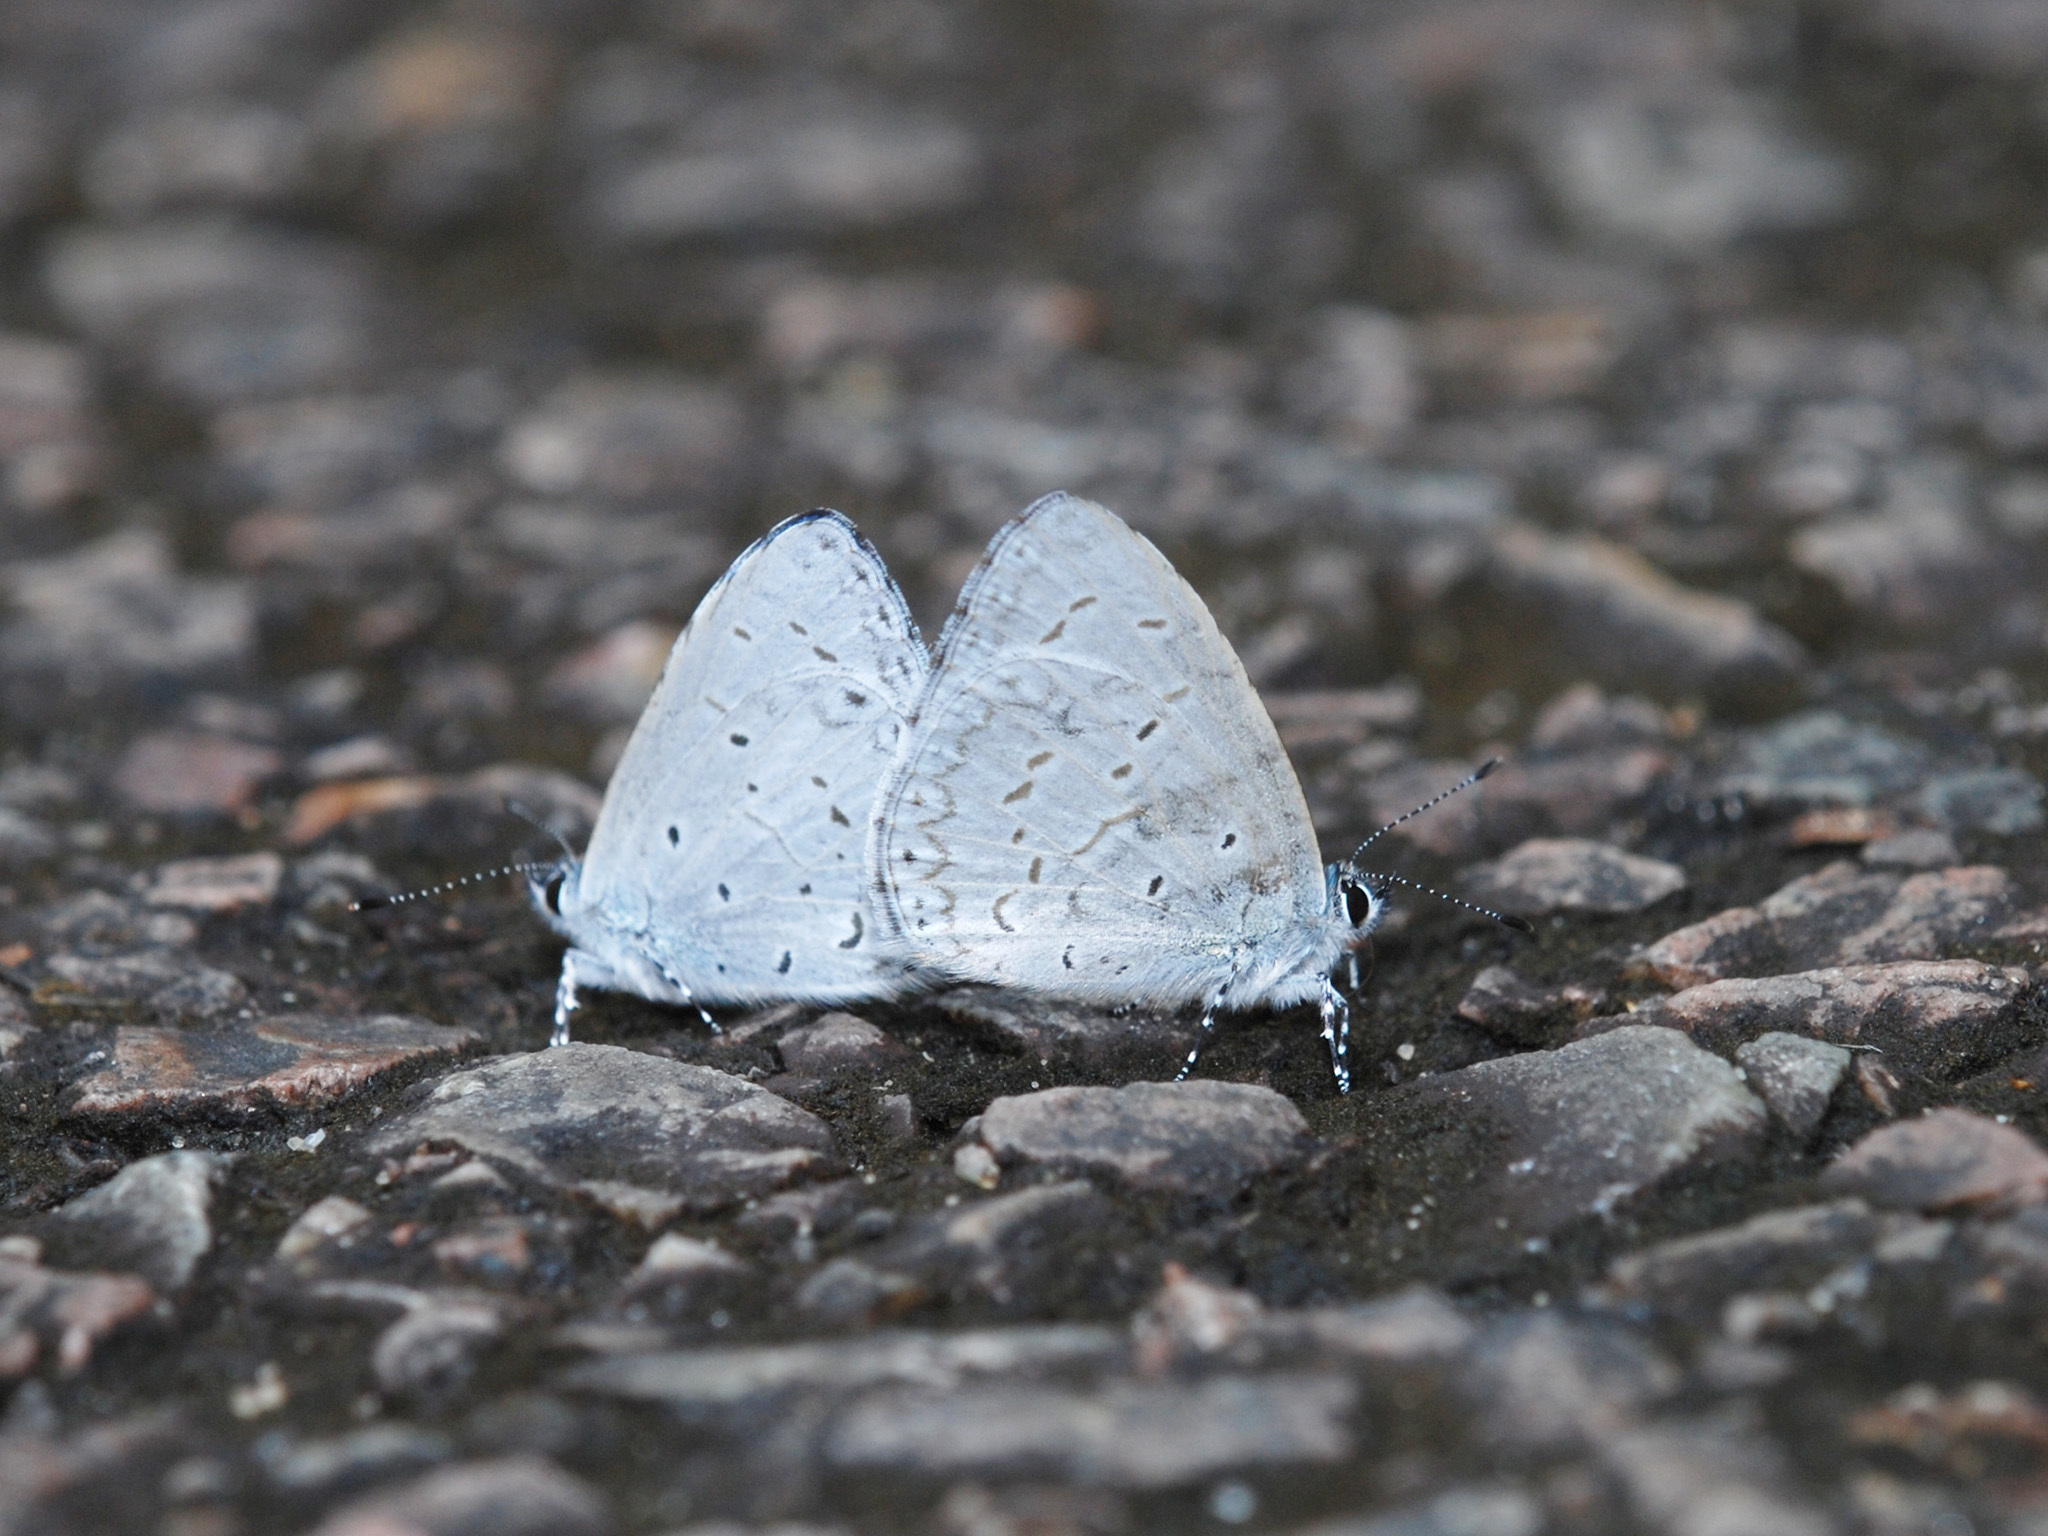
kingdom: Animalia
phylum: Arthropoda
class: Insecta
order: Lepidoptera
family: Lycaenidae
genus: Udara
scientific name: Udara dilectus
